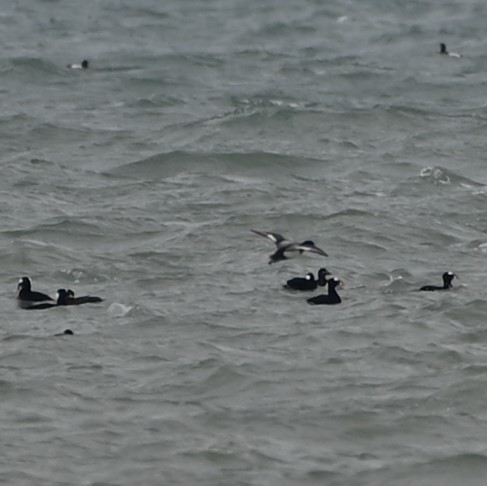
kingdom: Animalia
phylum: Chordata
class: Aves
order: Anseriformes
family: Anatidae
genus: Melanitta
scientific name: Melanitta perspicillata
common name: Surf scoter
